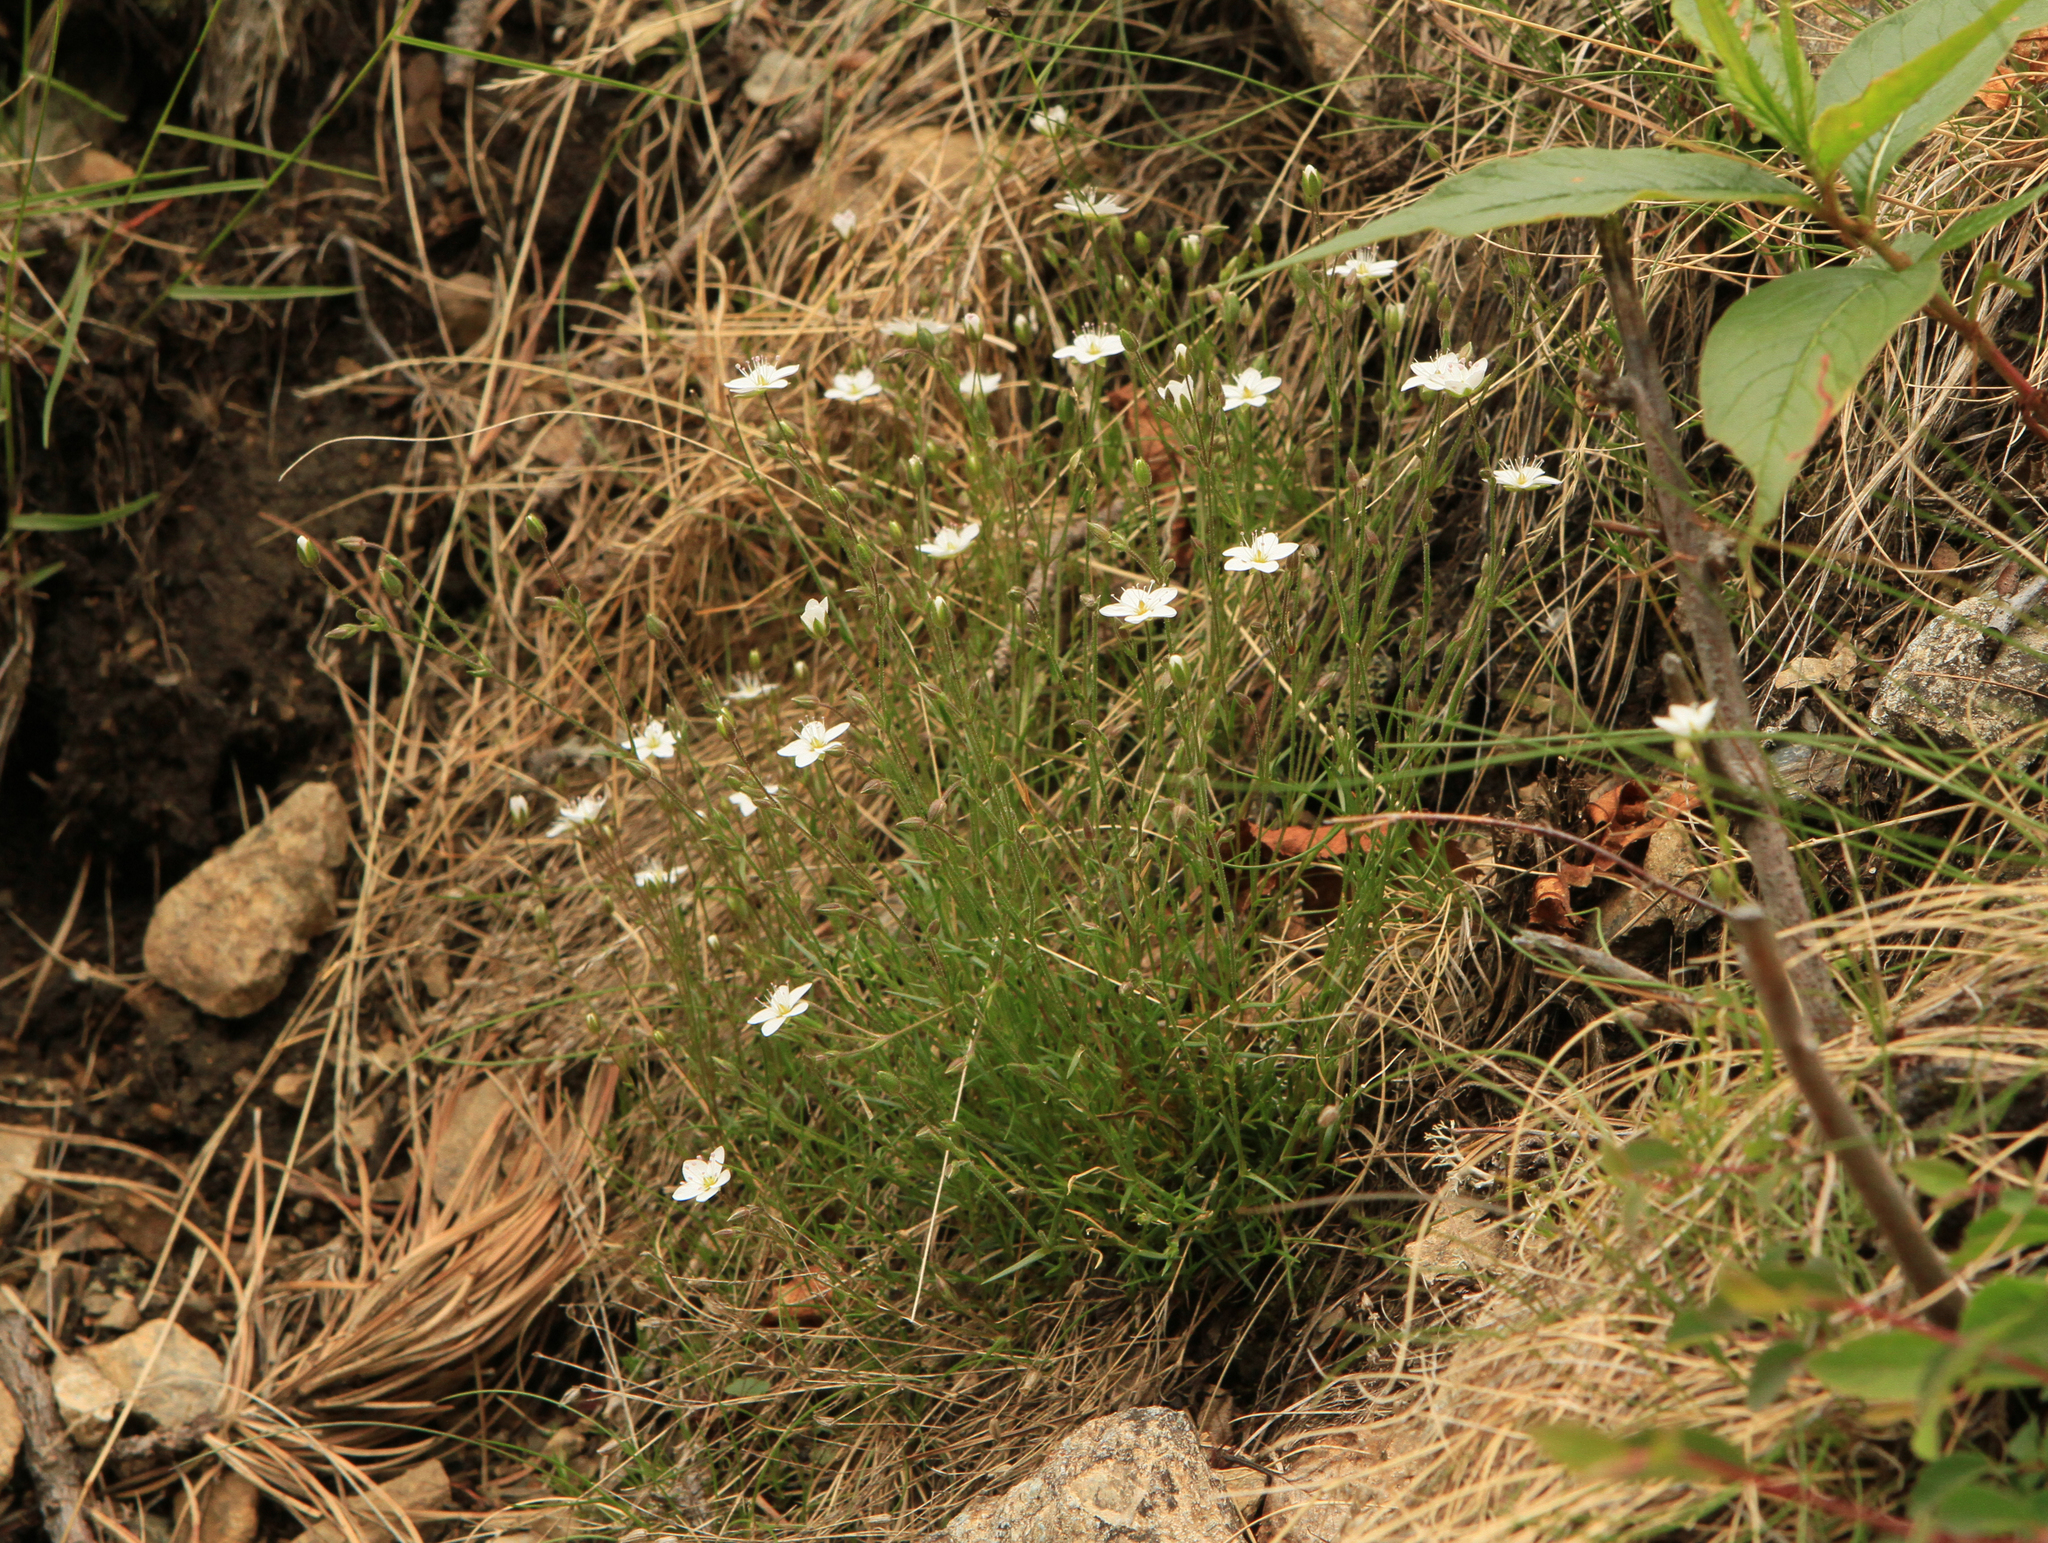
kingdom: Plantae
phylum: Tracheophyta
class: Magnoliopsida
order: Caryophyllales
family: Caryophyllaceae
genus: Sabulina
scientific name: Sabulina verna
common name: Spring sandwort
